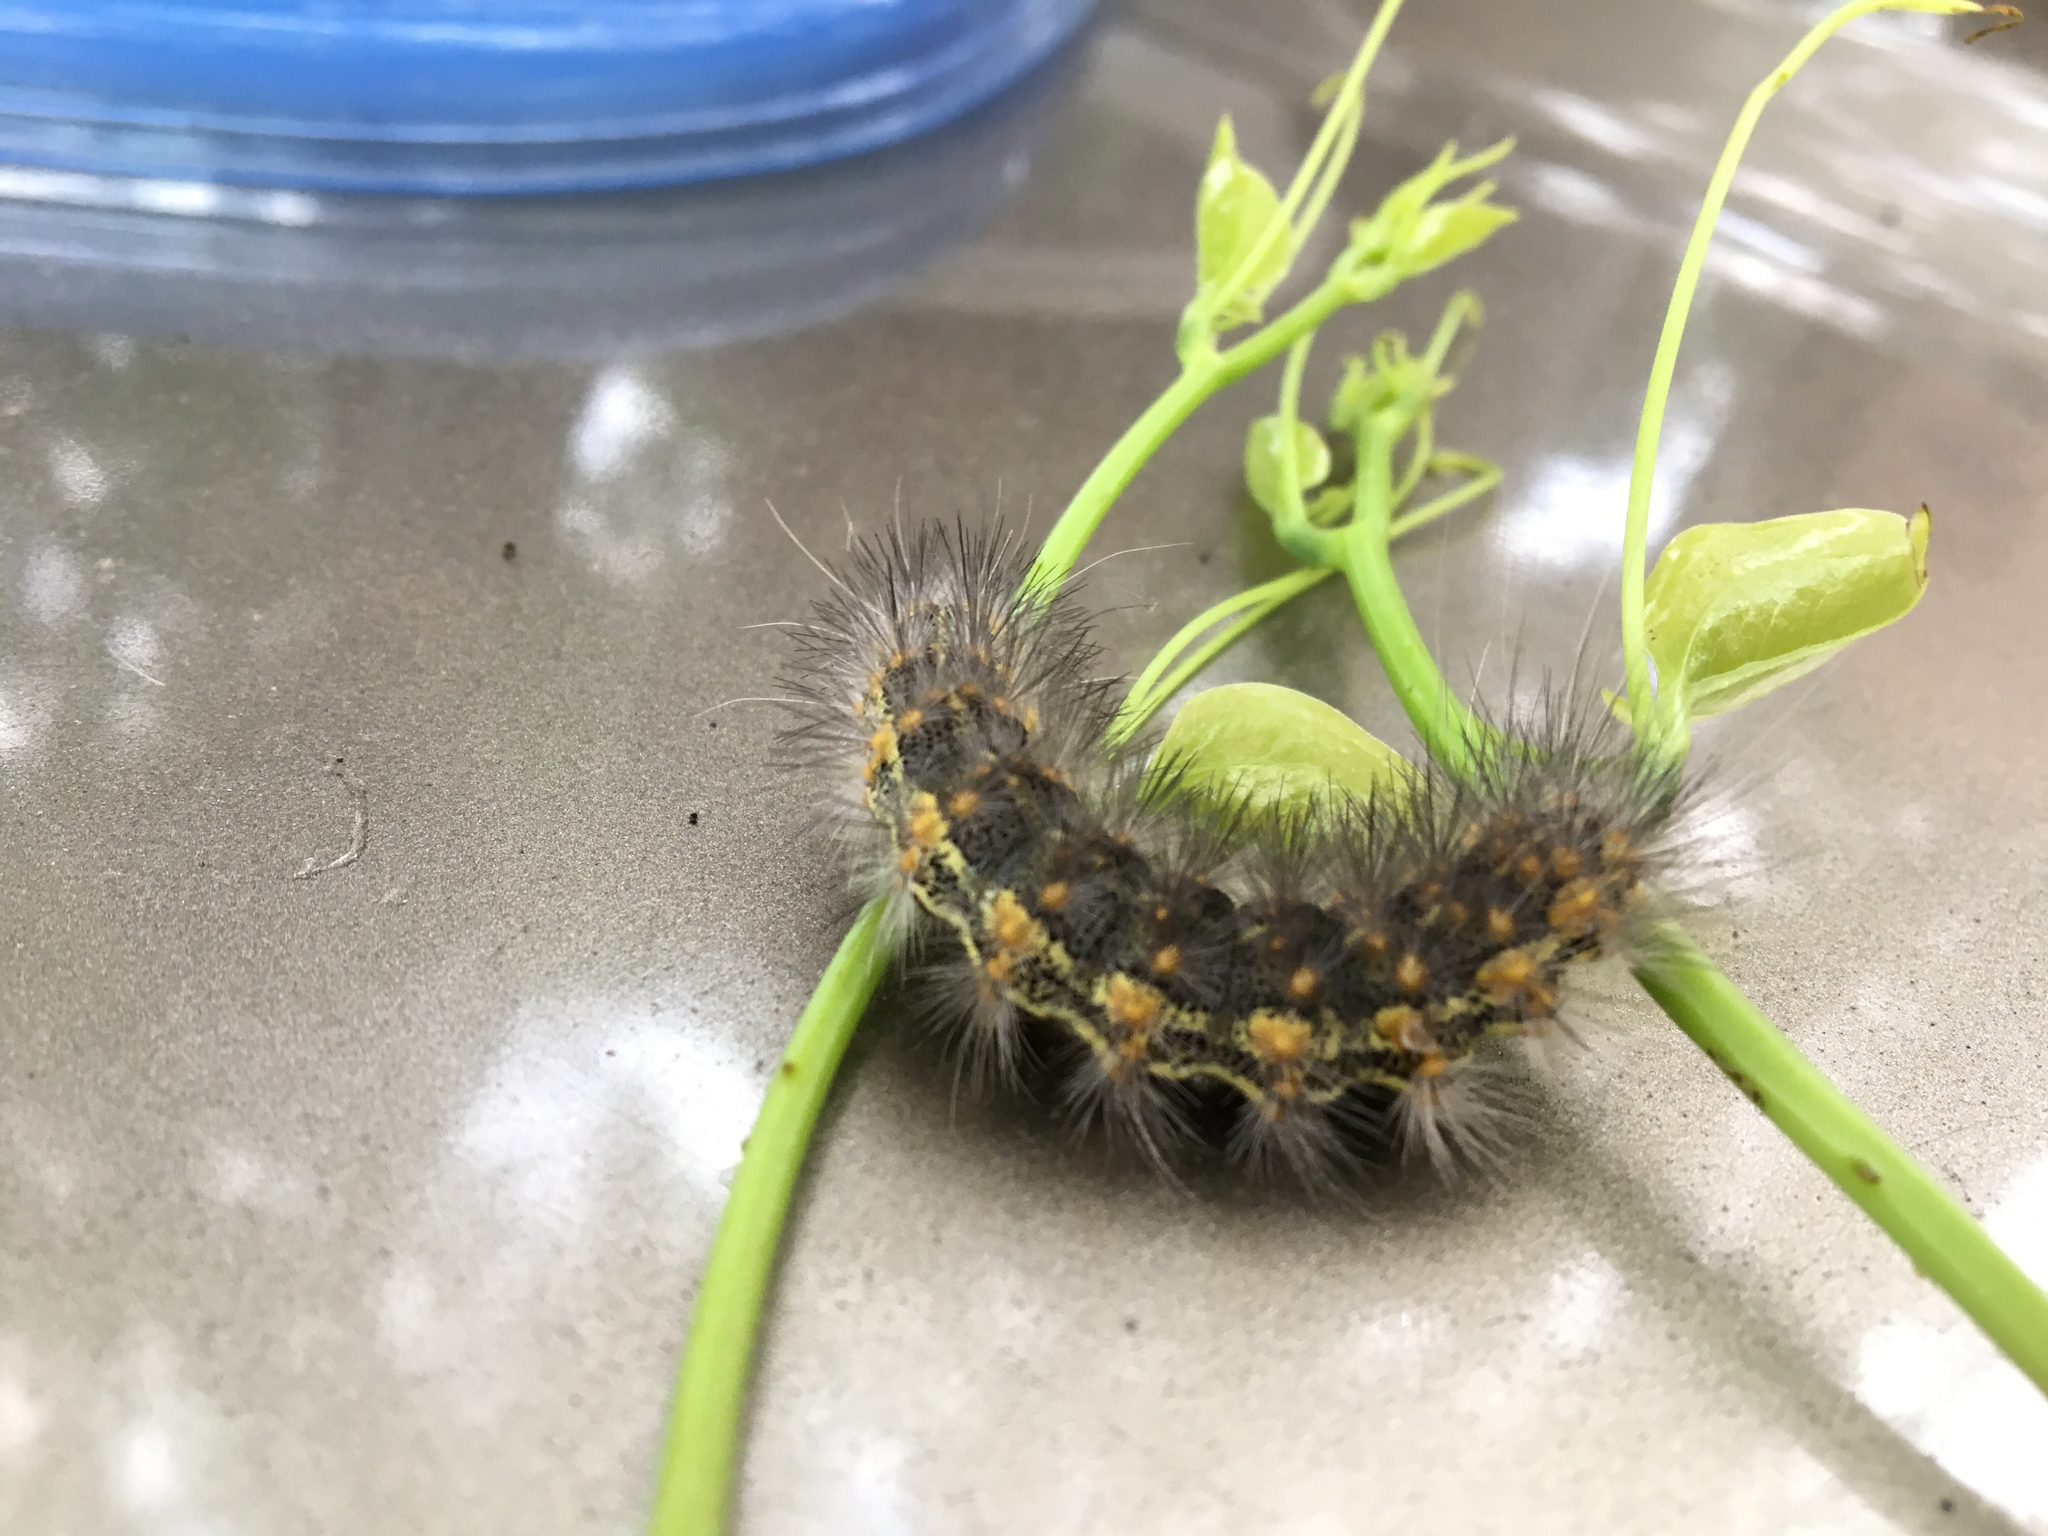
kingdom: Animalia
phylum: Arthropoda
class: Insecta
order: Lepidoptera
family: Erebidae
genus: Estigmene
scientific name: Estigmene acrea
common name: Salt marsh moth
